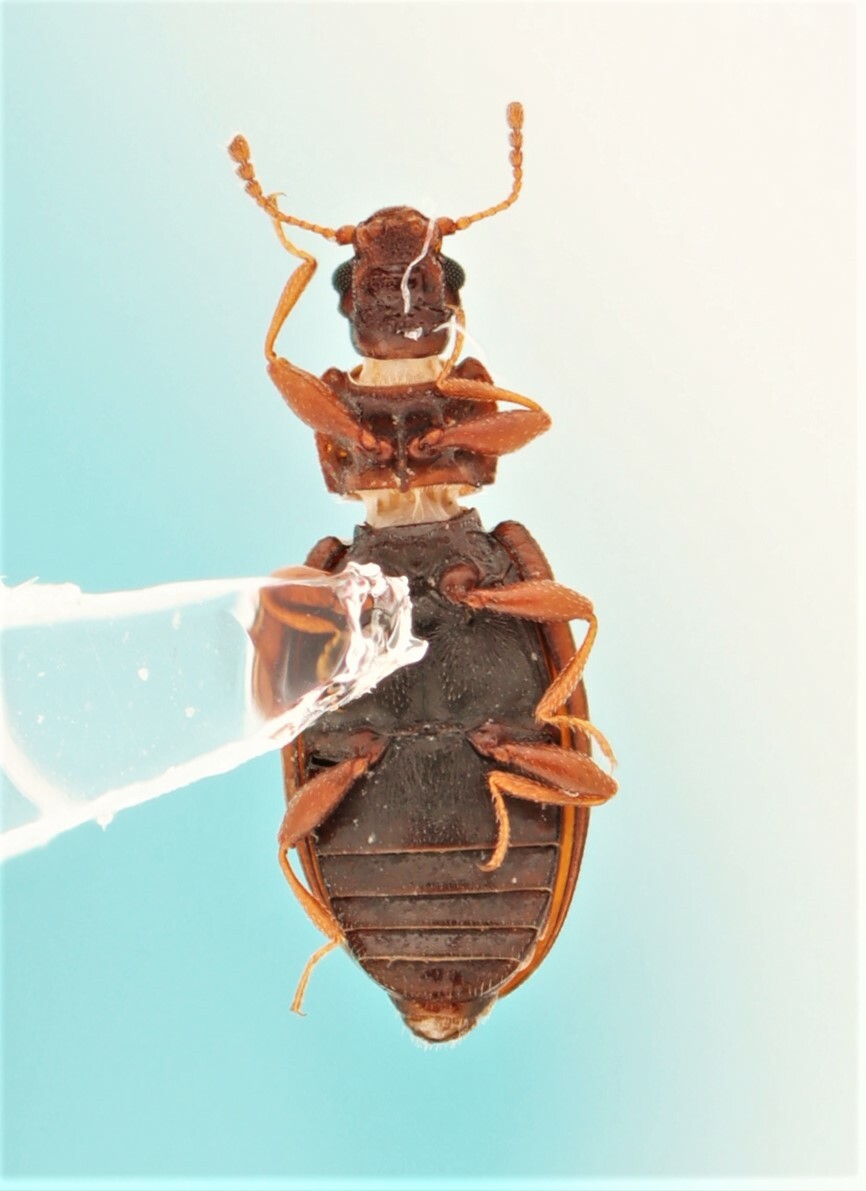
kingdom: Animalia
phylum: Arthropoda
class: Insecta
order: Coleoptera
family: Latridiidae
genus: Enicmus
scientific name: Enicmus histrio
